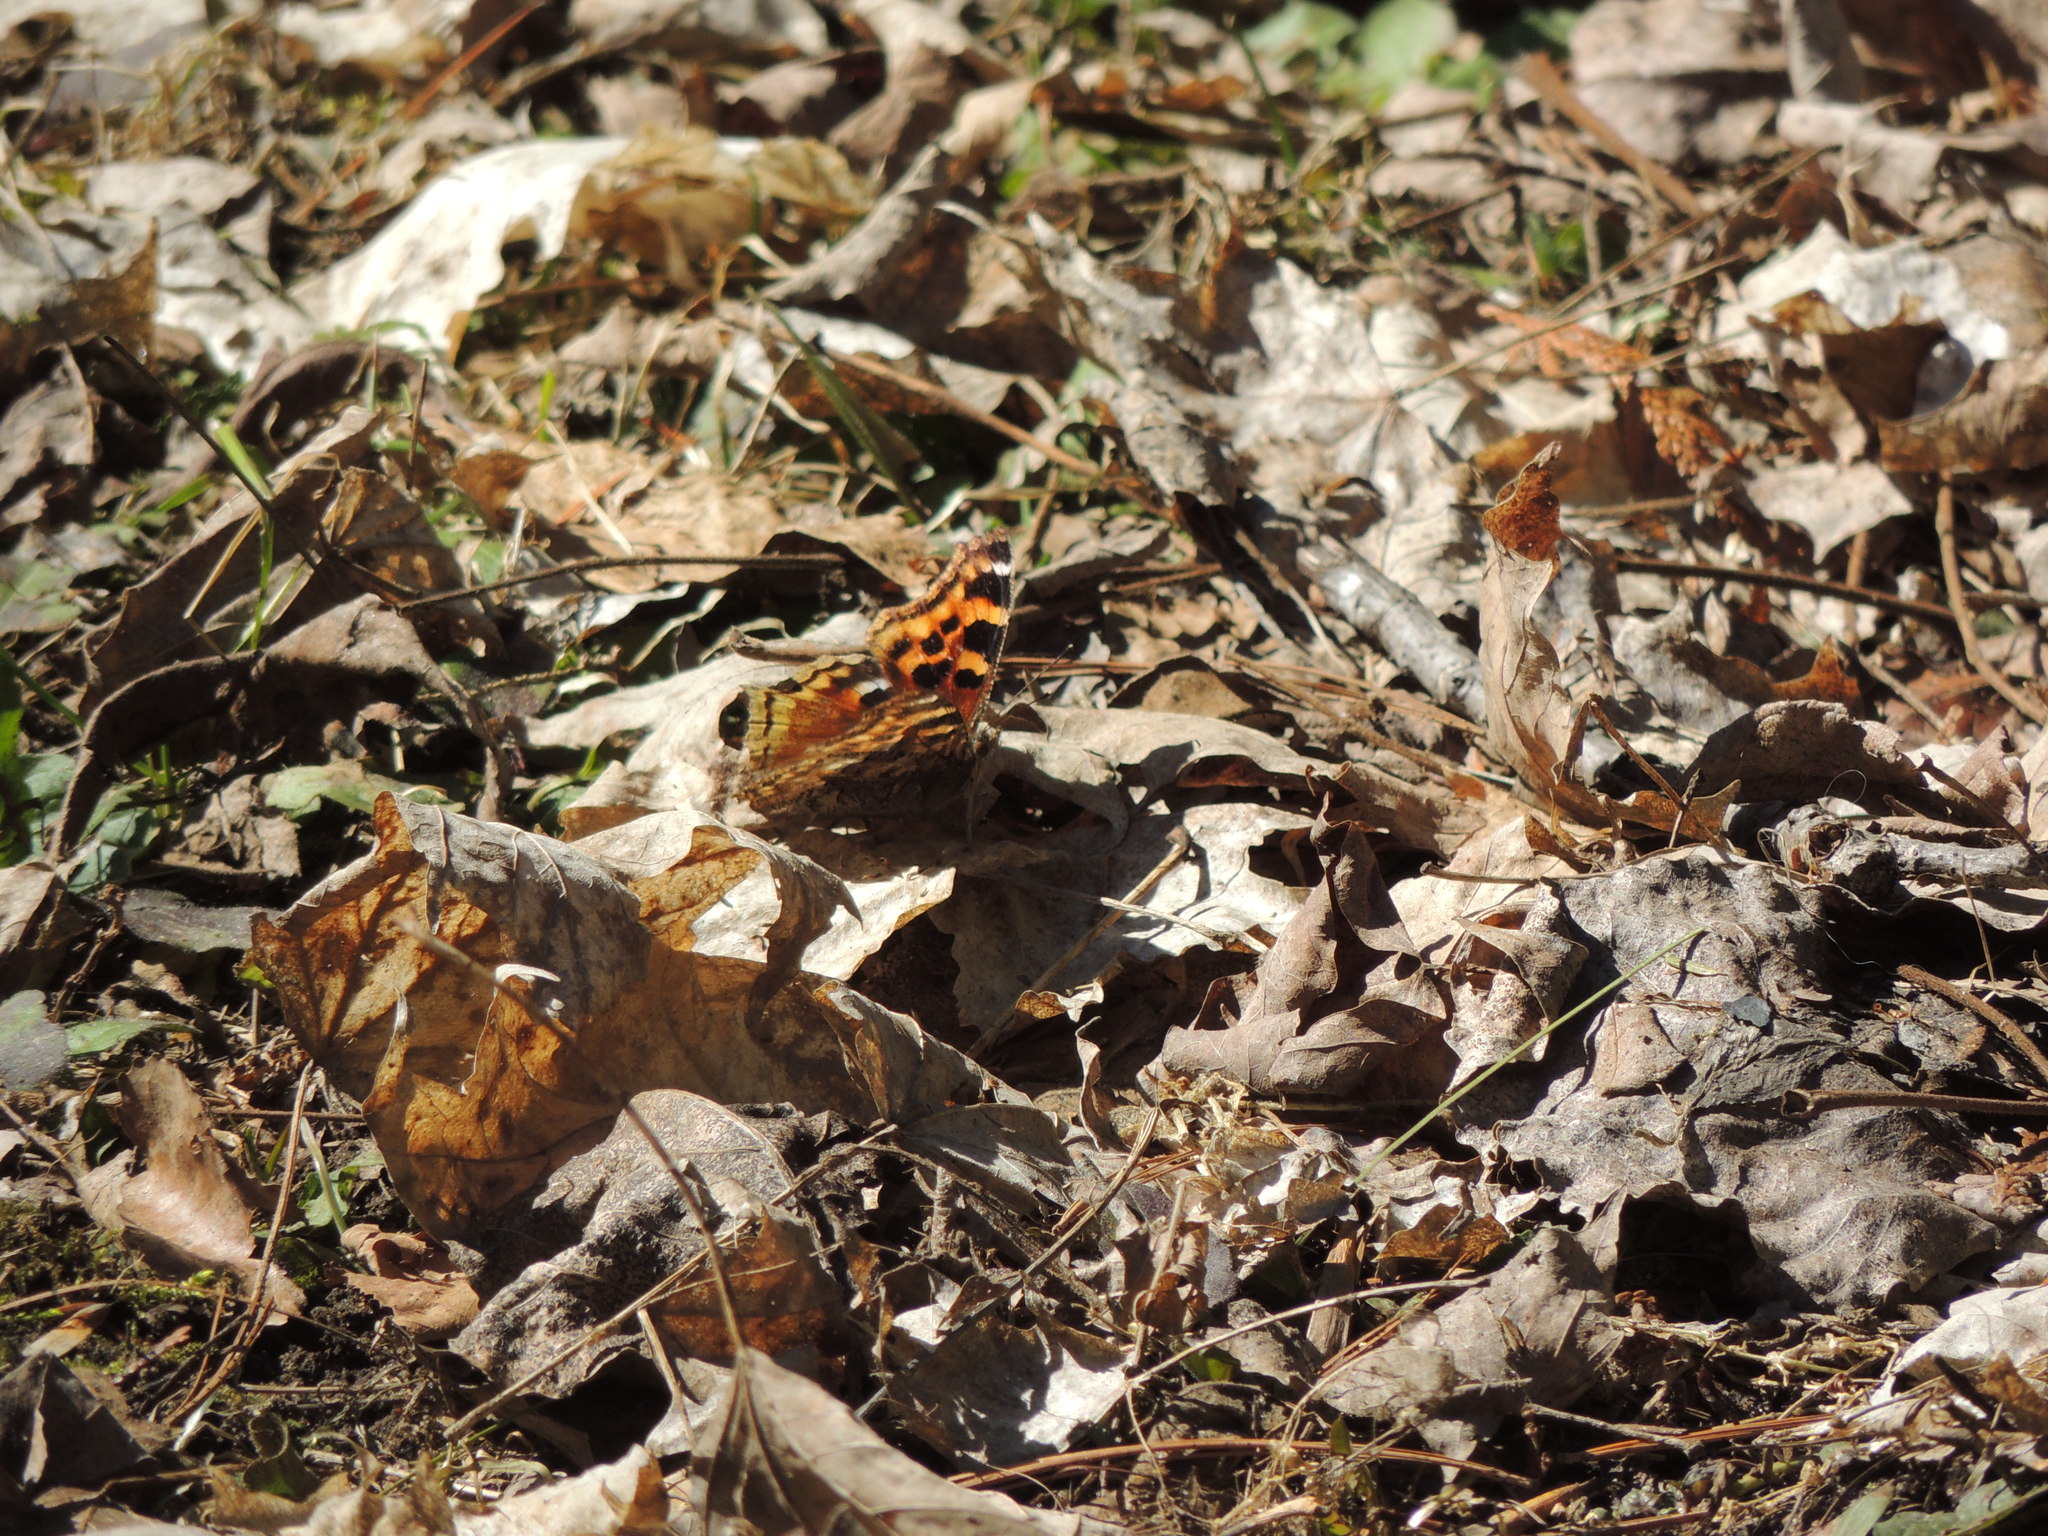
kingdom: Animalia
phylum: Arthropoda
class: Insecta
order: Lepidoptera
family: Nymphalidae
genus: Polygonia
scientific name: Polygonia vaualbum
